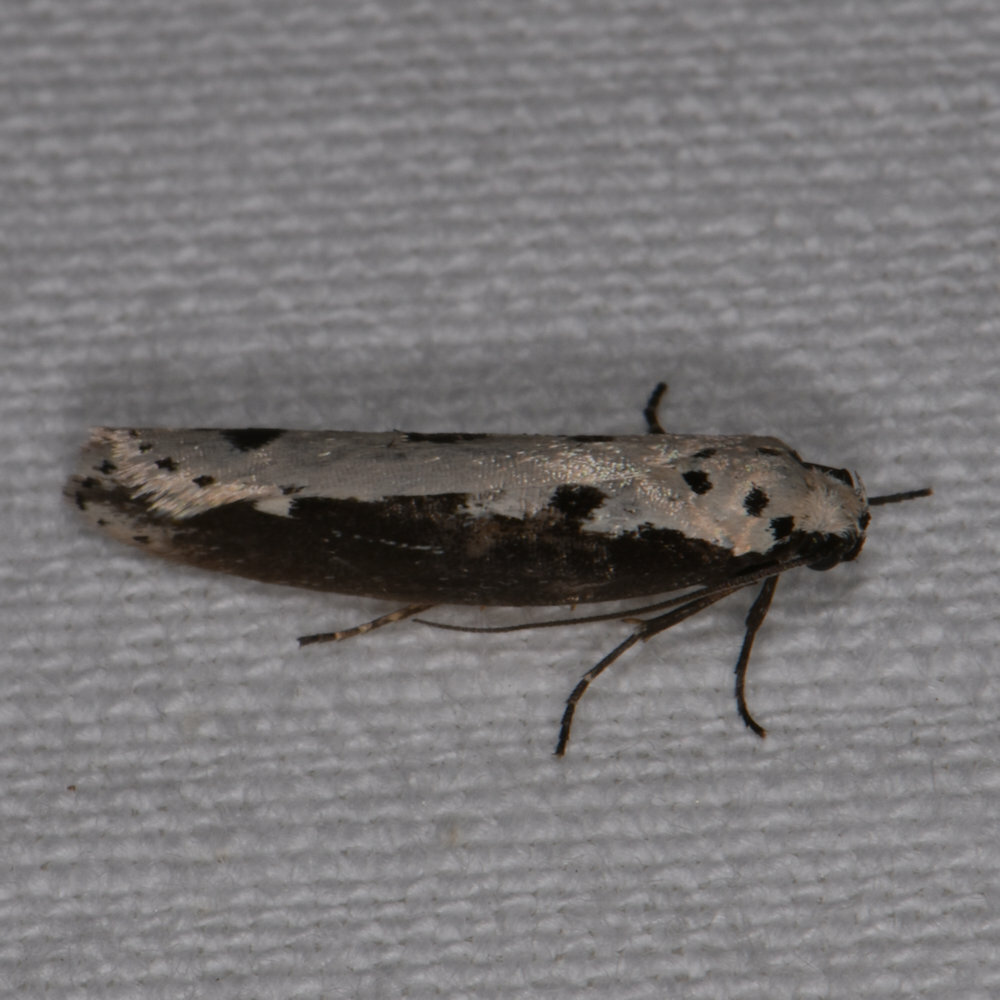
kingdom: Animalia
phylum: Arthropoda
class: Insecta
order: Lepidoptera
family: Ethmiidae
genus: Ethmia
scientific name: Ethmia bipunctella
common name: Bordered ermel
